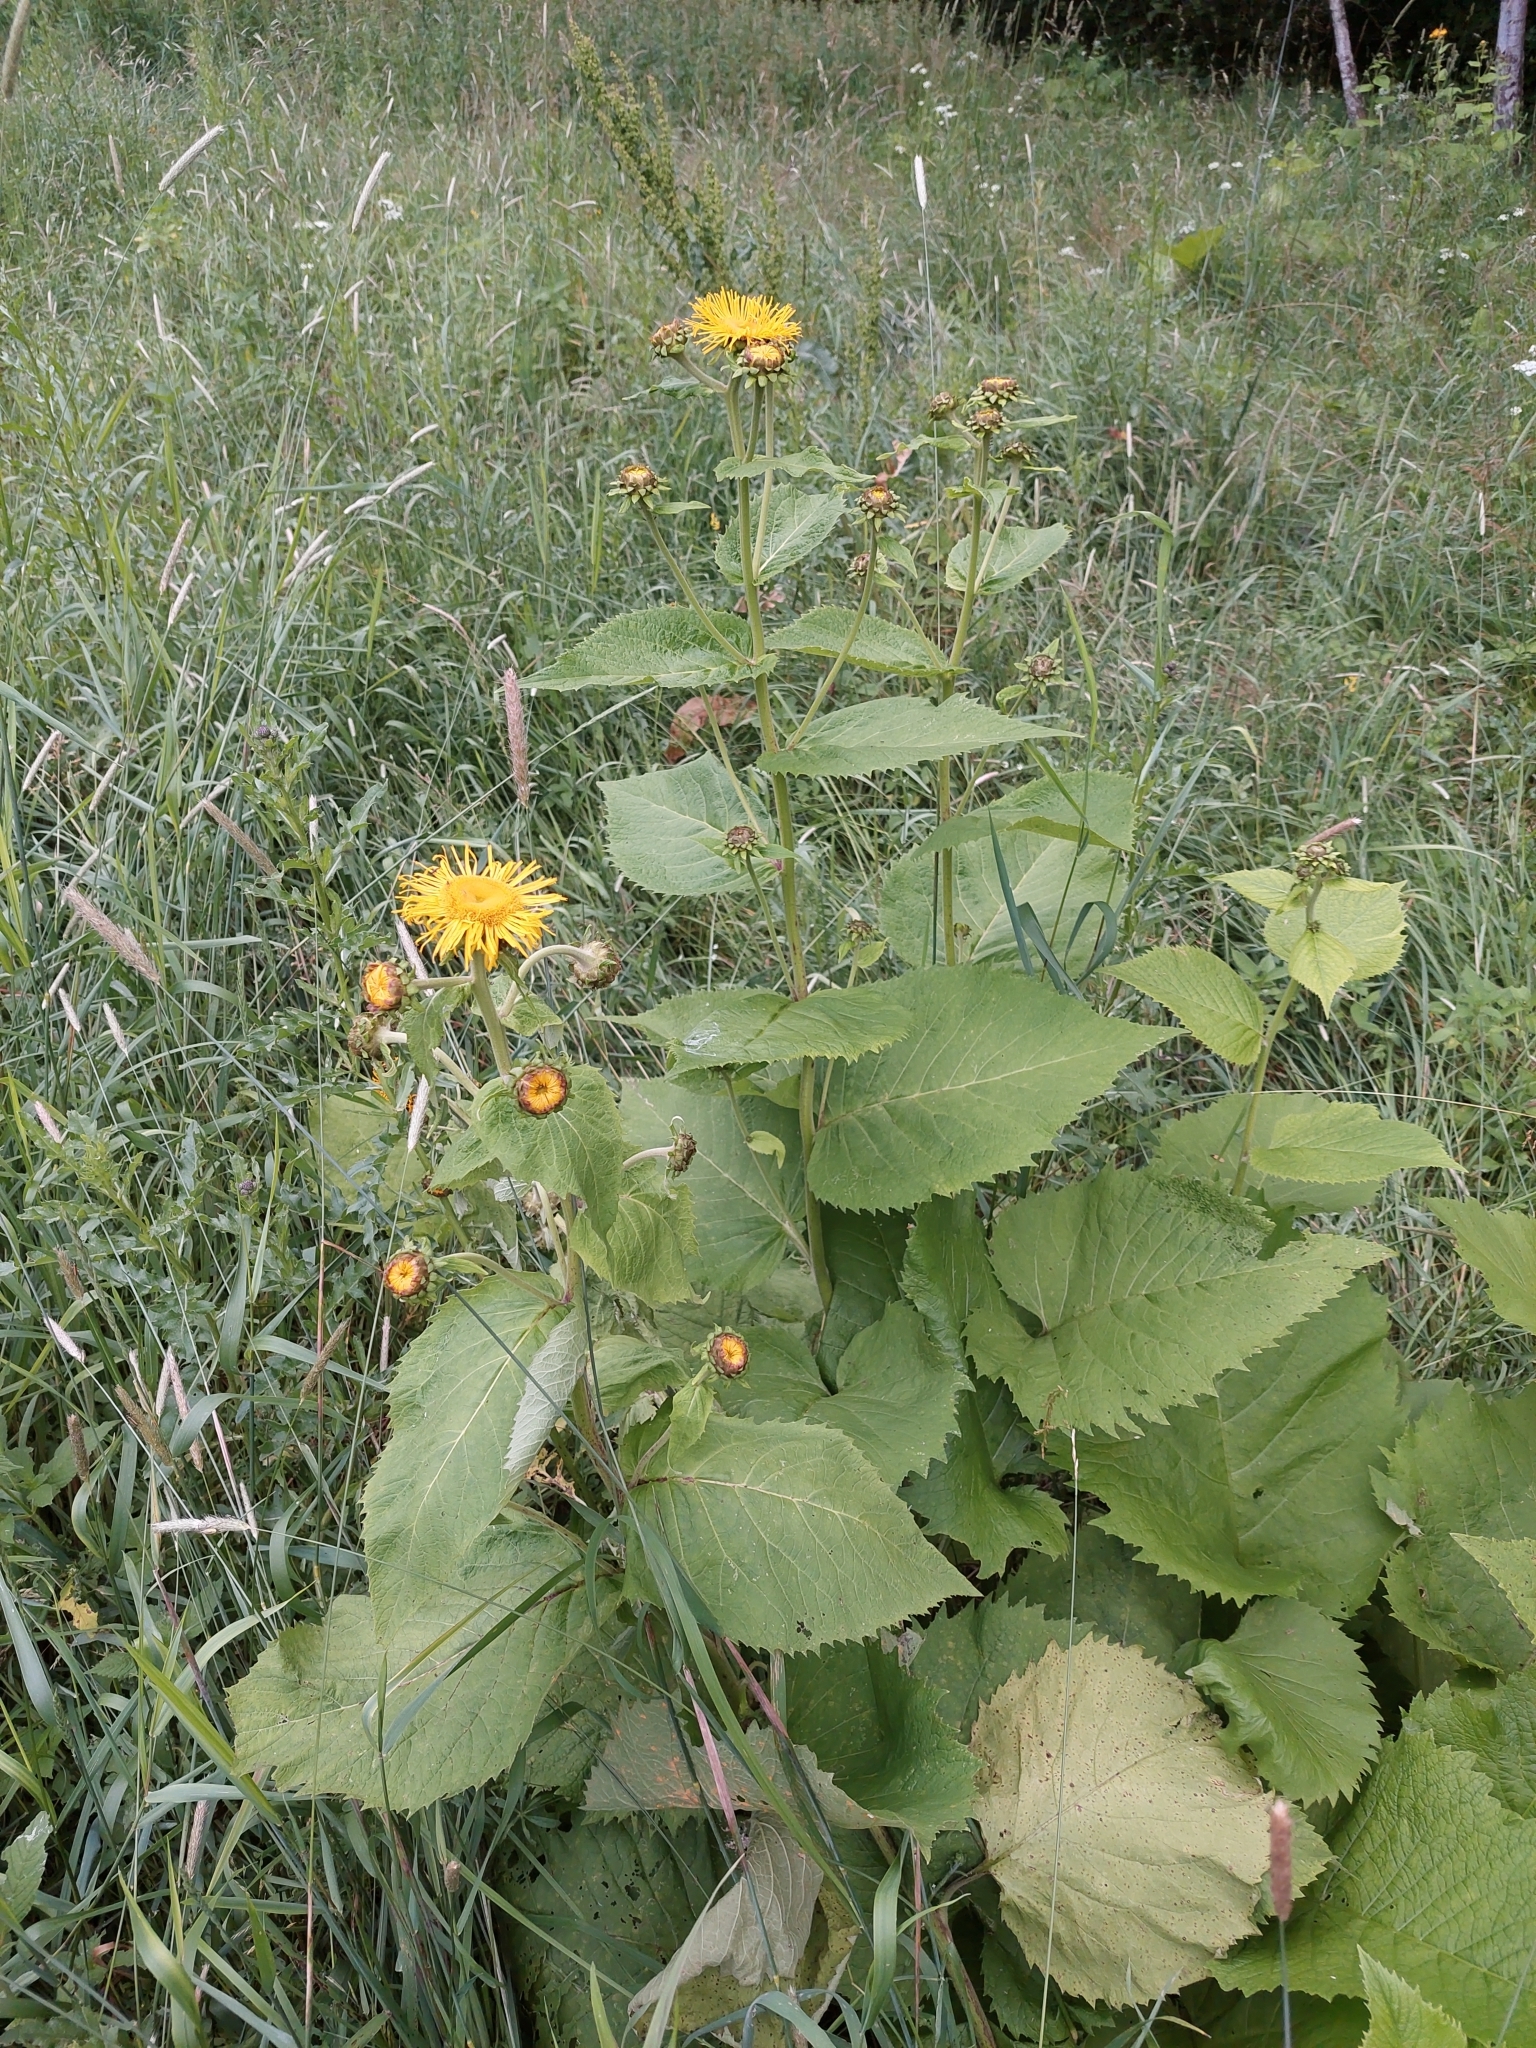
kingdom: Plantae
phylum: Tracheophyta
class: Magnoliopsida
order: Asterales
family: Asteraceae
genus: Telekia
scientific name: Telekia speciosa
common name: Yellow oxeye
